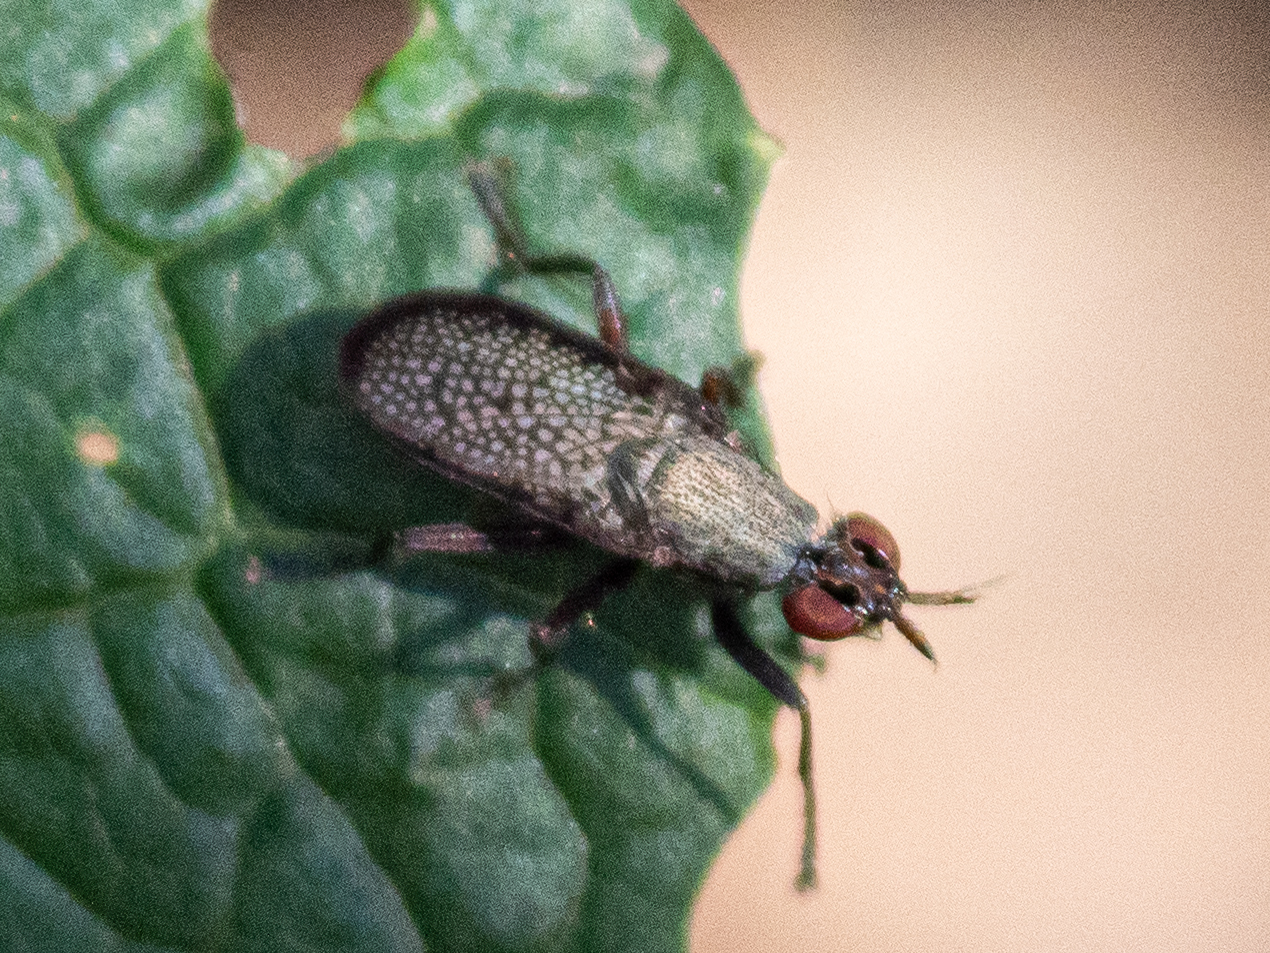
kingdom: Animalia
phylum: Arthropoda
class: Insecta
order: Diptera
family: Sciomyzidae
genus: Coremacera
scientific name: Coremacera marginata
